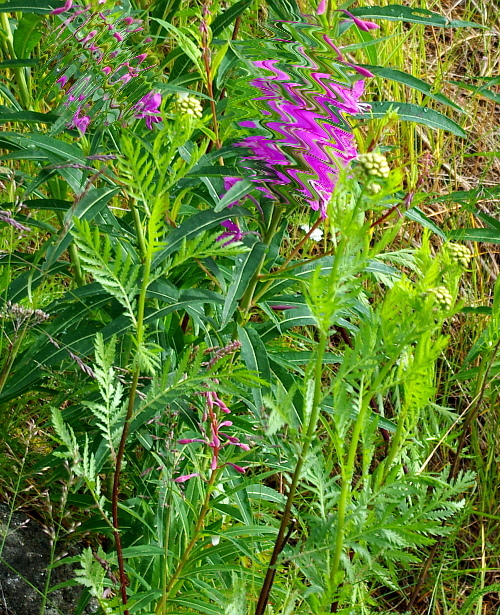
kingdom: Plantae
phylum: Tracheophyta
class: Magnoliopsida
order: Asterales
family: Asteraceae
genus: Tanacetum
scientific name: Tanacetum vulgare
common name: Common tansy
